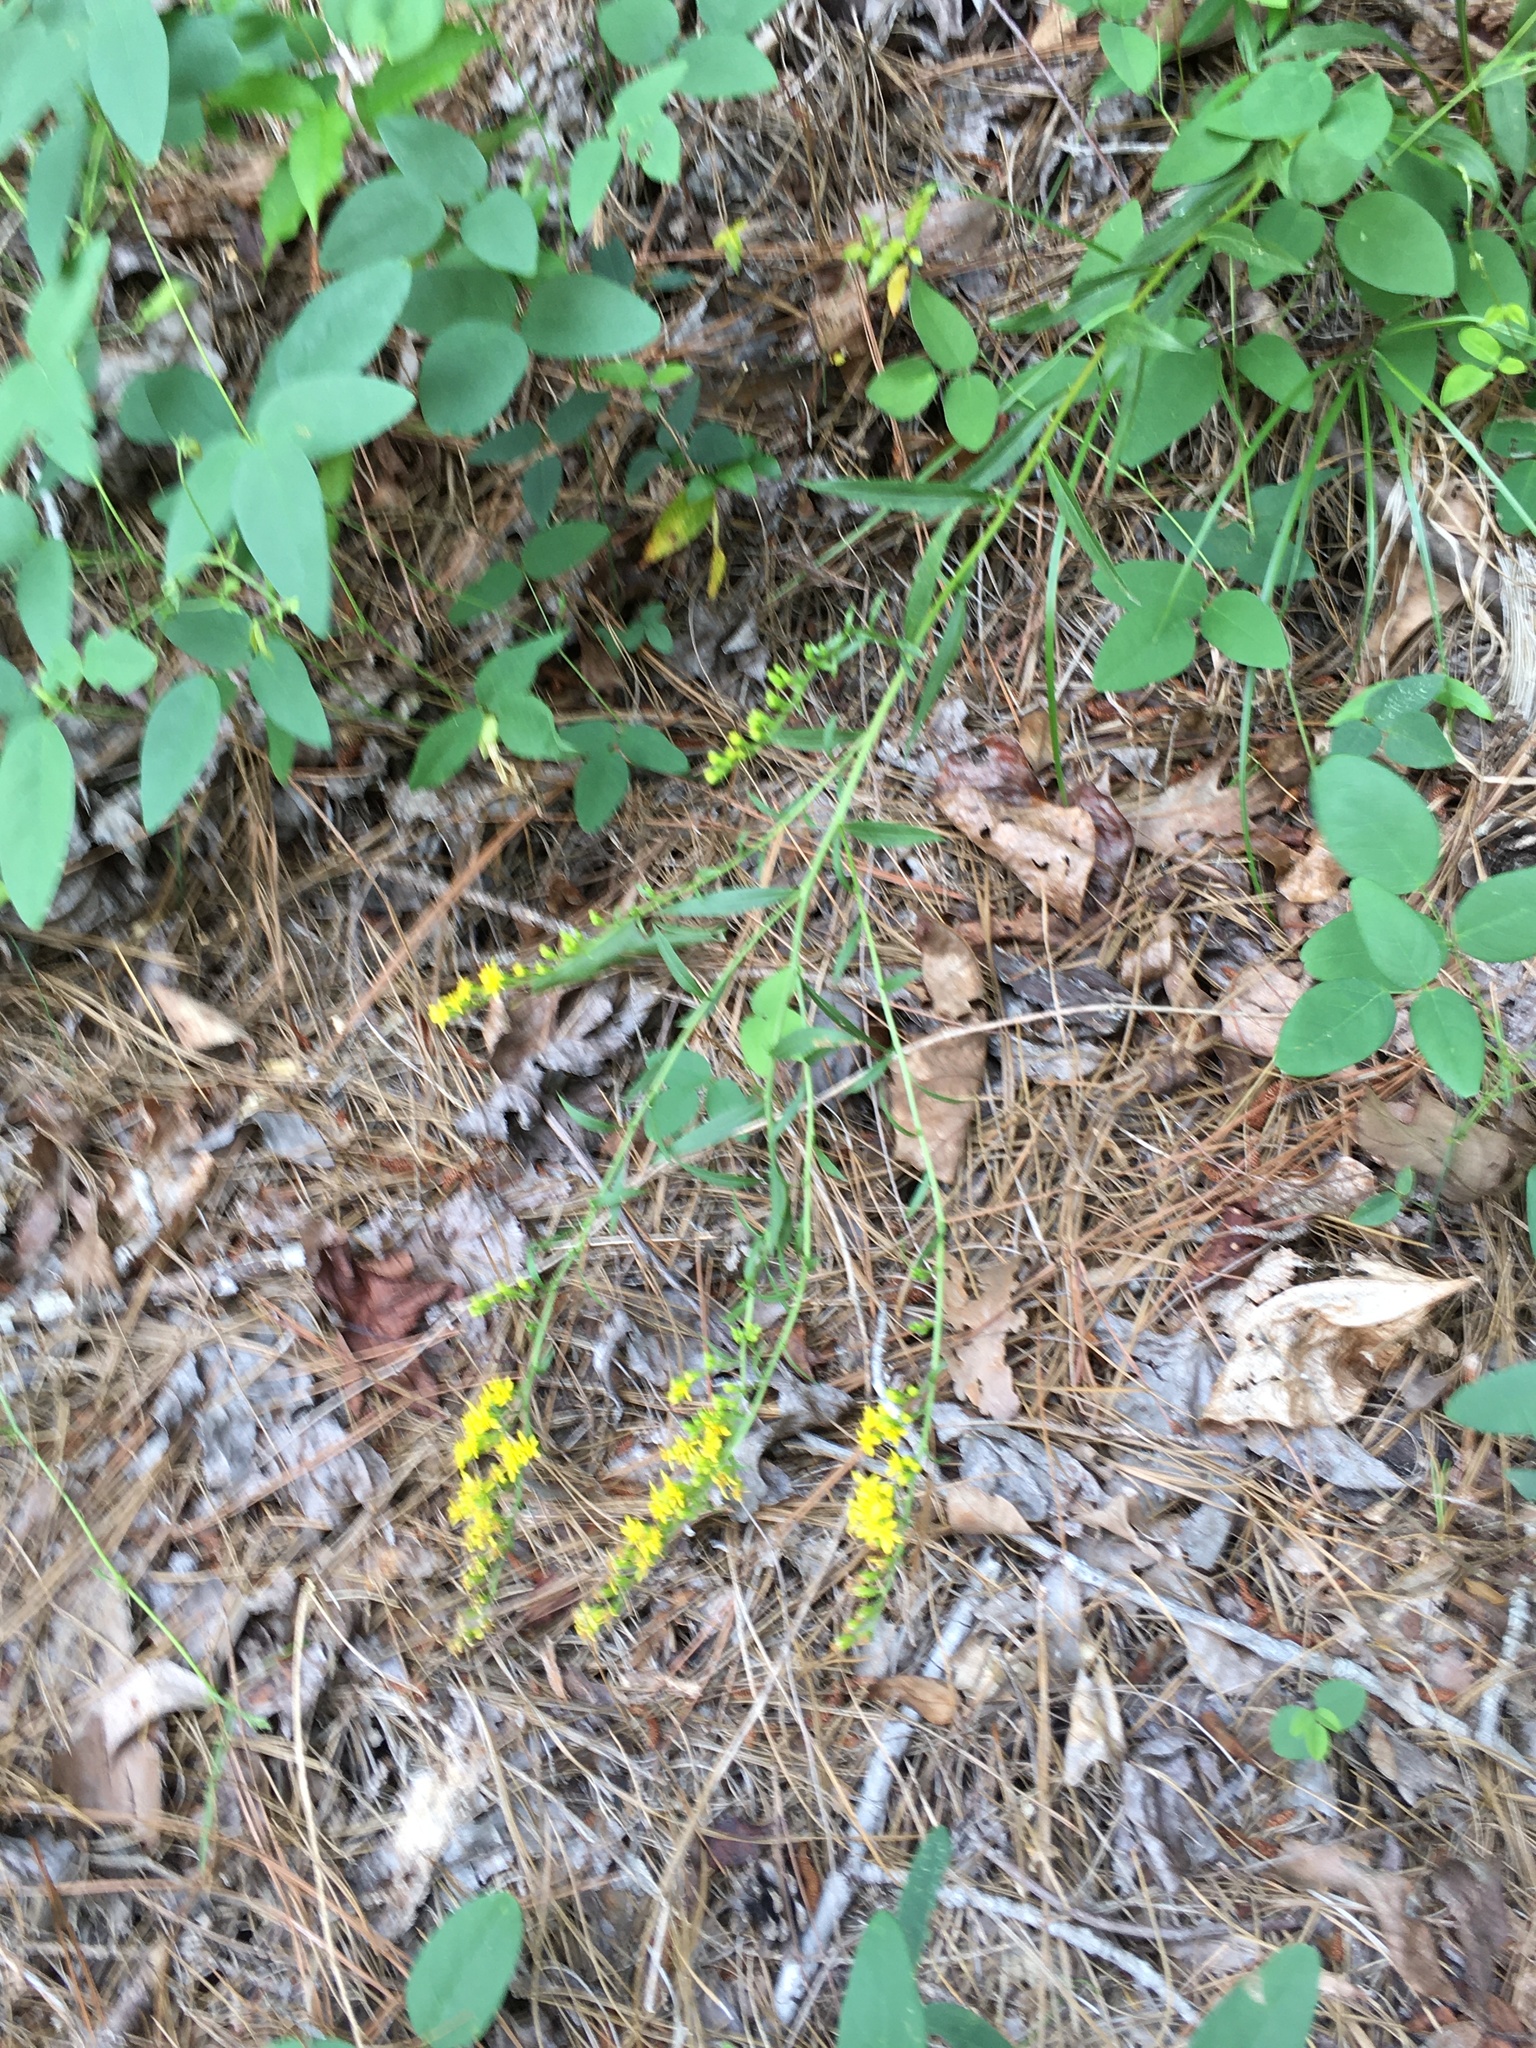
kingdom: Plantae
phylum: Tracheophyta
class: Magnoliopsida
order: Asterales
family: Asteraceae
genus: Solidago
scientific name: Solidago pinetorum
